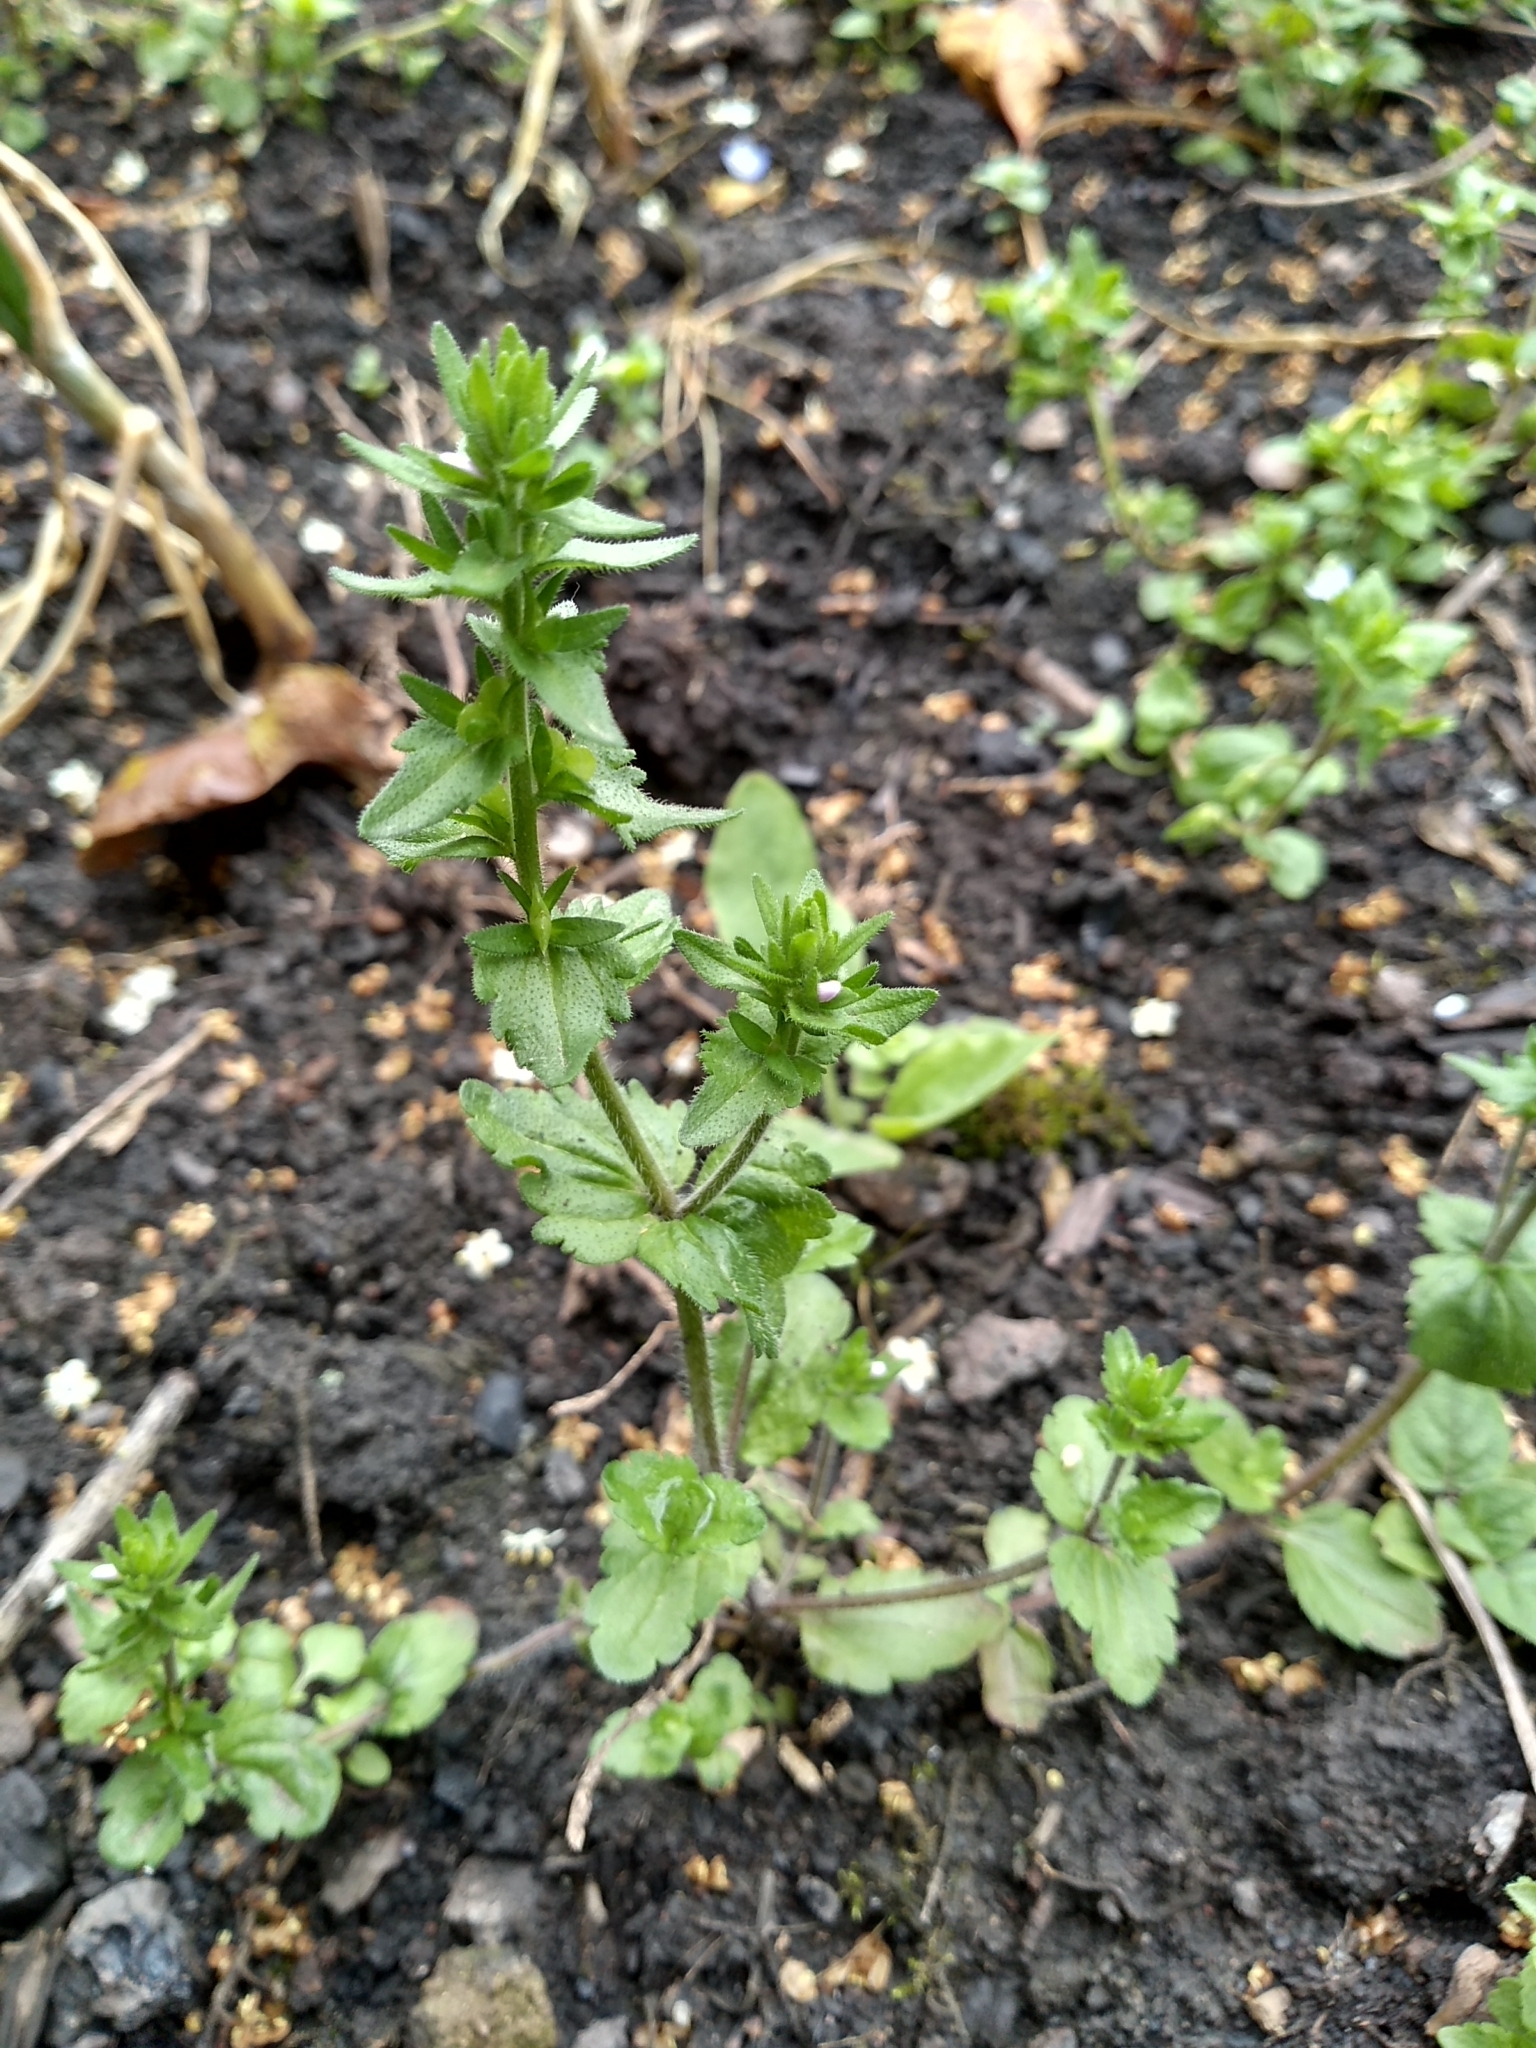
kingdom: Plantae
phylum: Tracheophyta
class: Magnoliopsida
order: Lamiales
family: Plantaginaceae
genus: Veronica
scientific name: Veronica arvensis
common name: Corn speedwell
